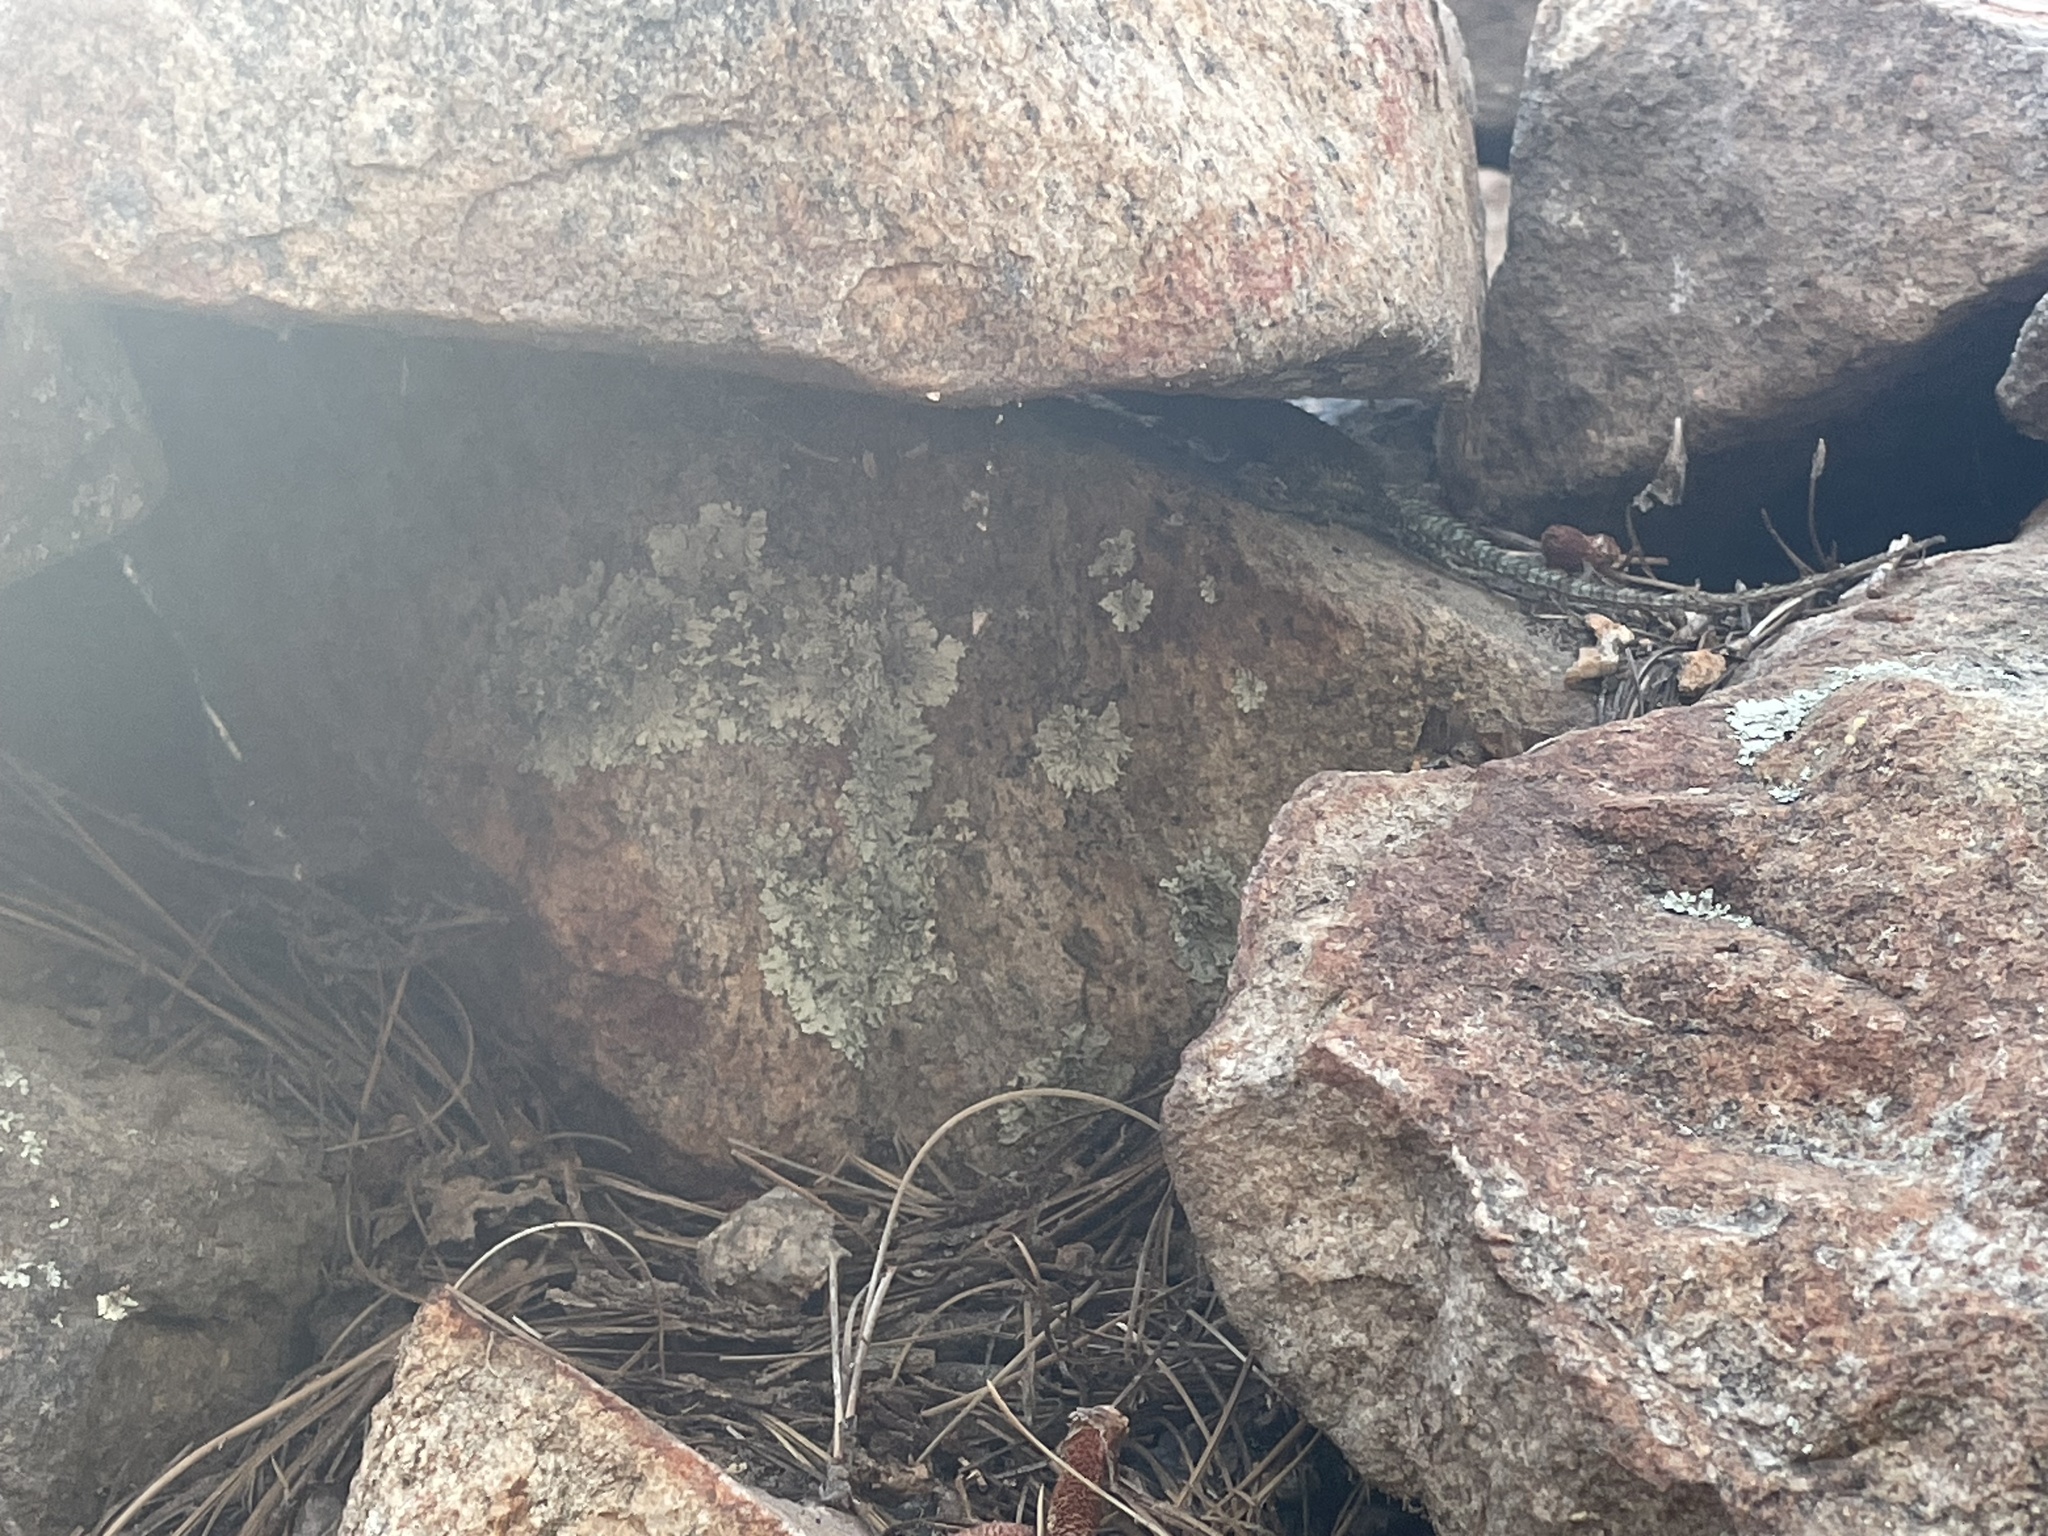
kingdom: Animalia
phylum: Chordata
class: Squamata
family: Phrynosomatidae
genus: Sceloporus
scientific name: Sceloporus jarrovii
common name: Yarrow's spiny lizard
